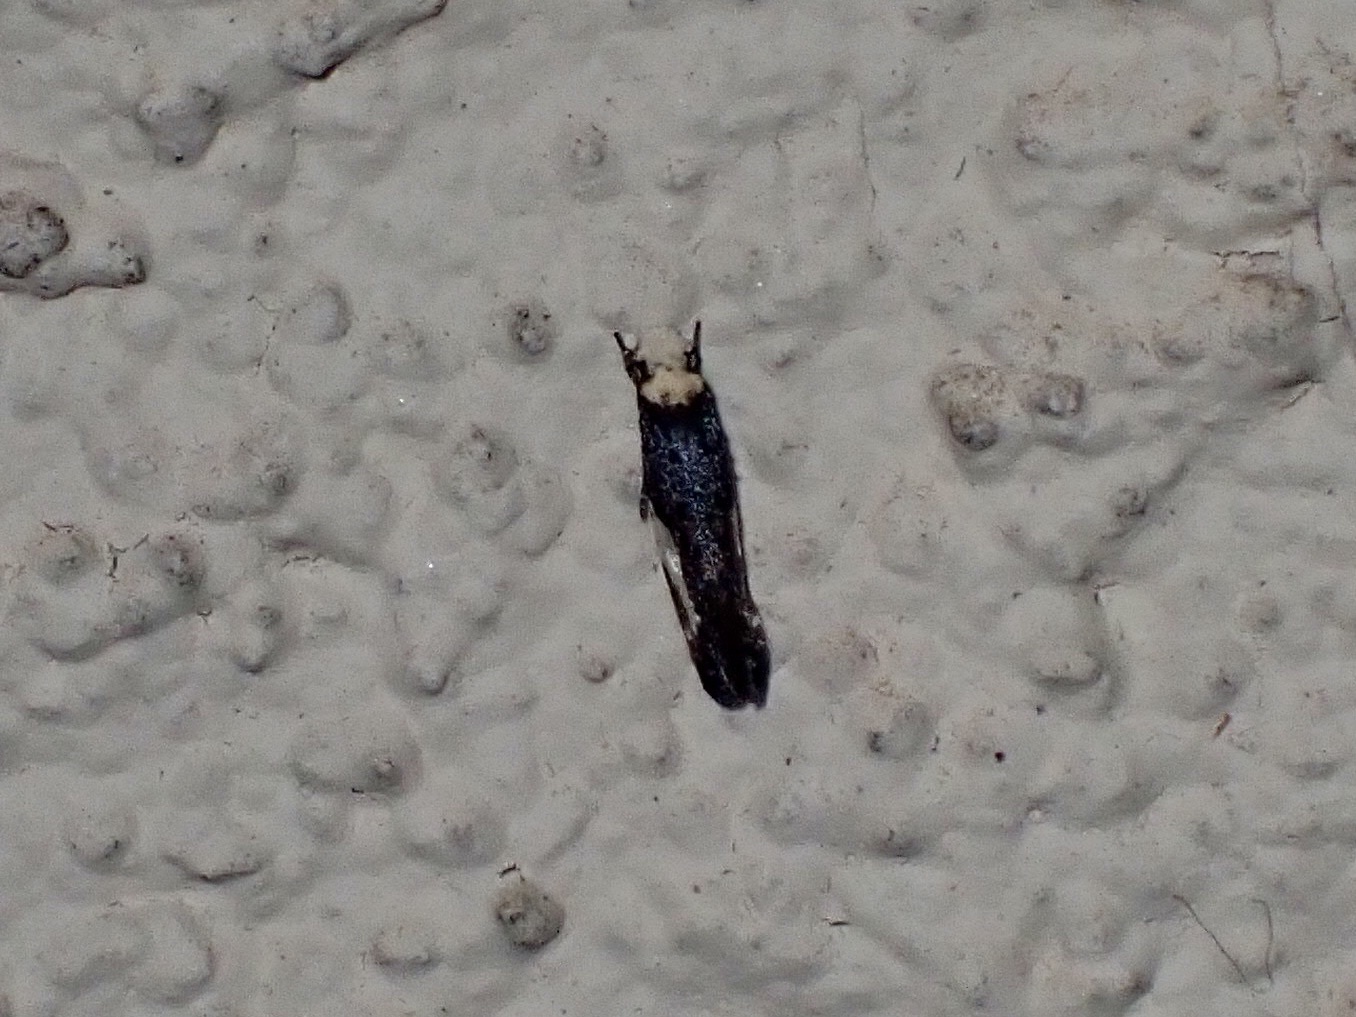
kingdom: Animalia
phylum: Arthropoda
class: Insecta
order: Lepidoptera
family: Tineidae
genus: Monopis
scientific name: Monopis longella
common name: Pavlovski's monopis moth
